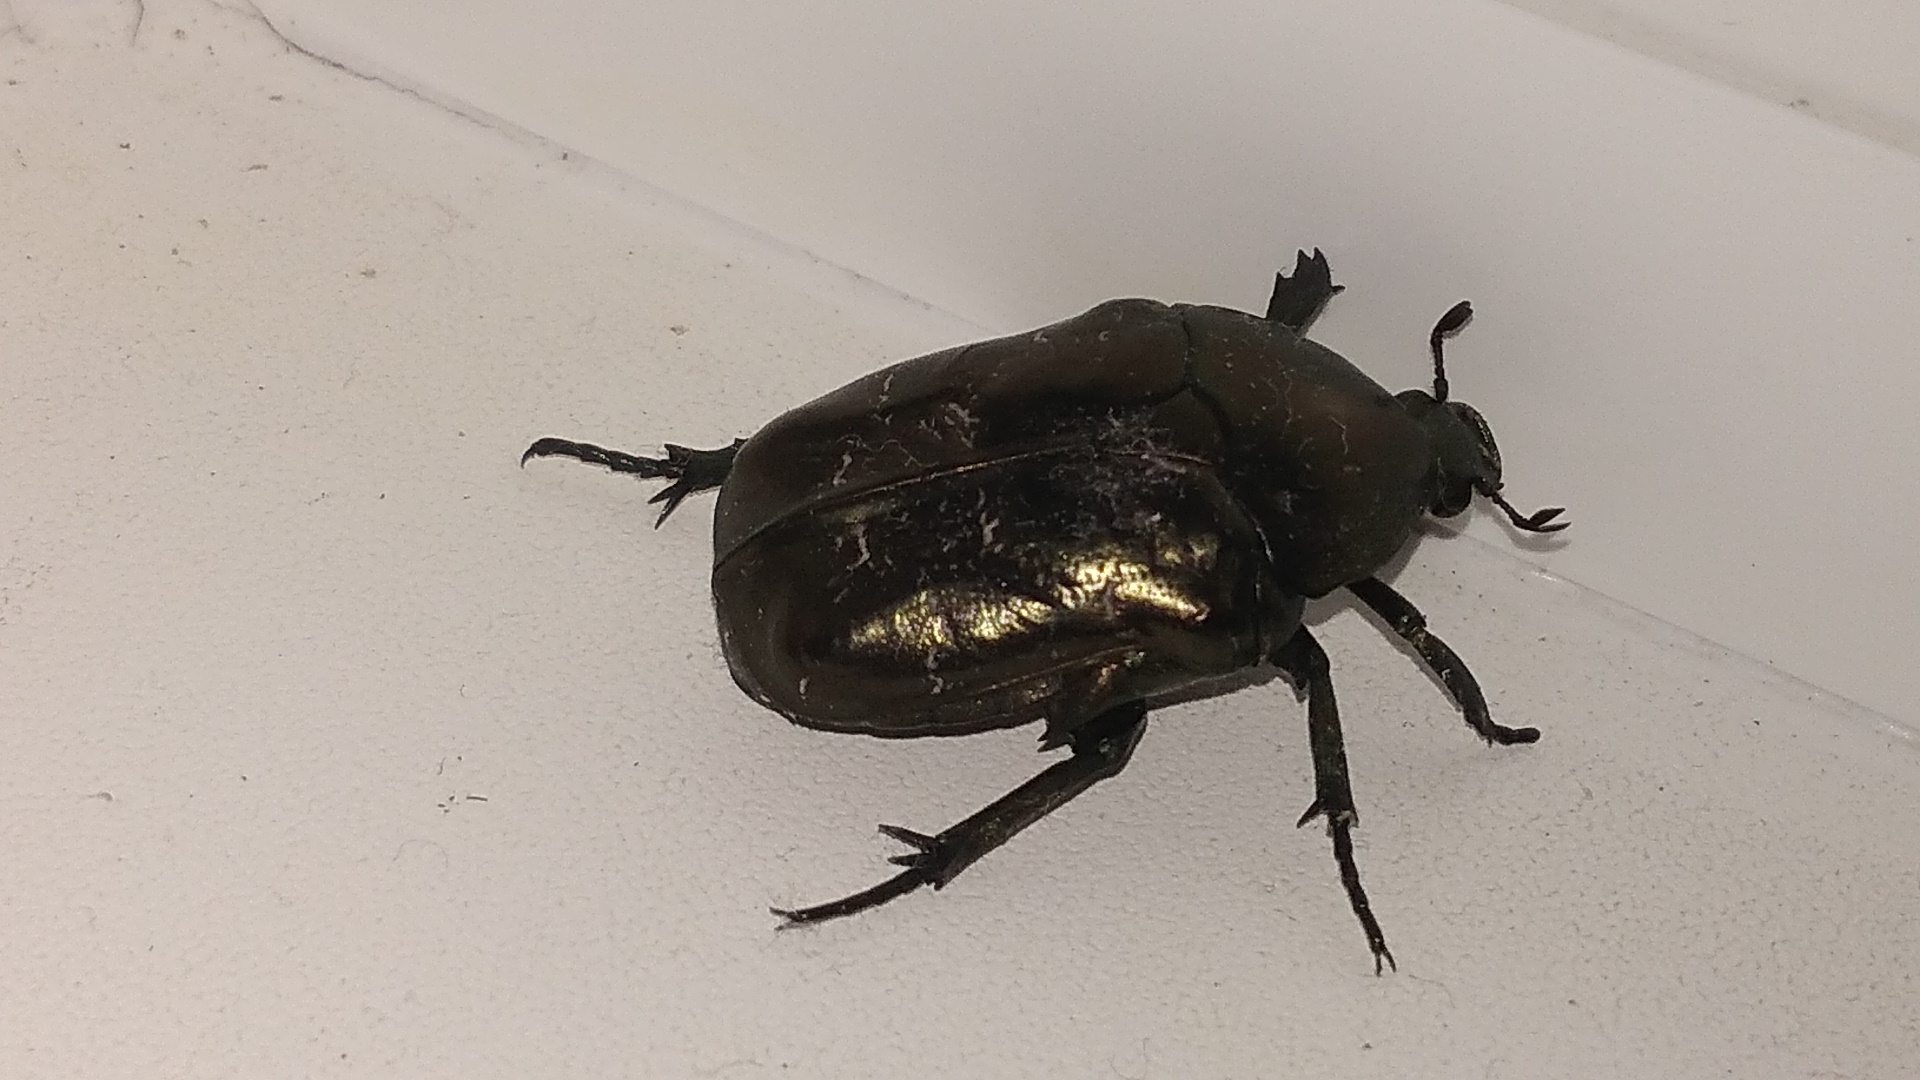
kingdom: Animalia
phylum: Arthropoda
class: Insecta
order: Coleoptera
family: Scarabaeidae
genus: Protaetia
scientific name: Protaetia marmorata
